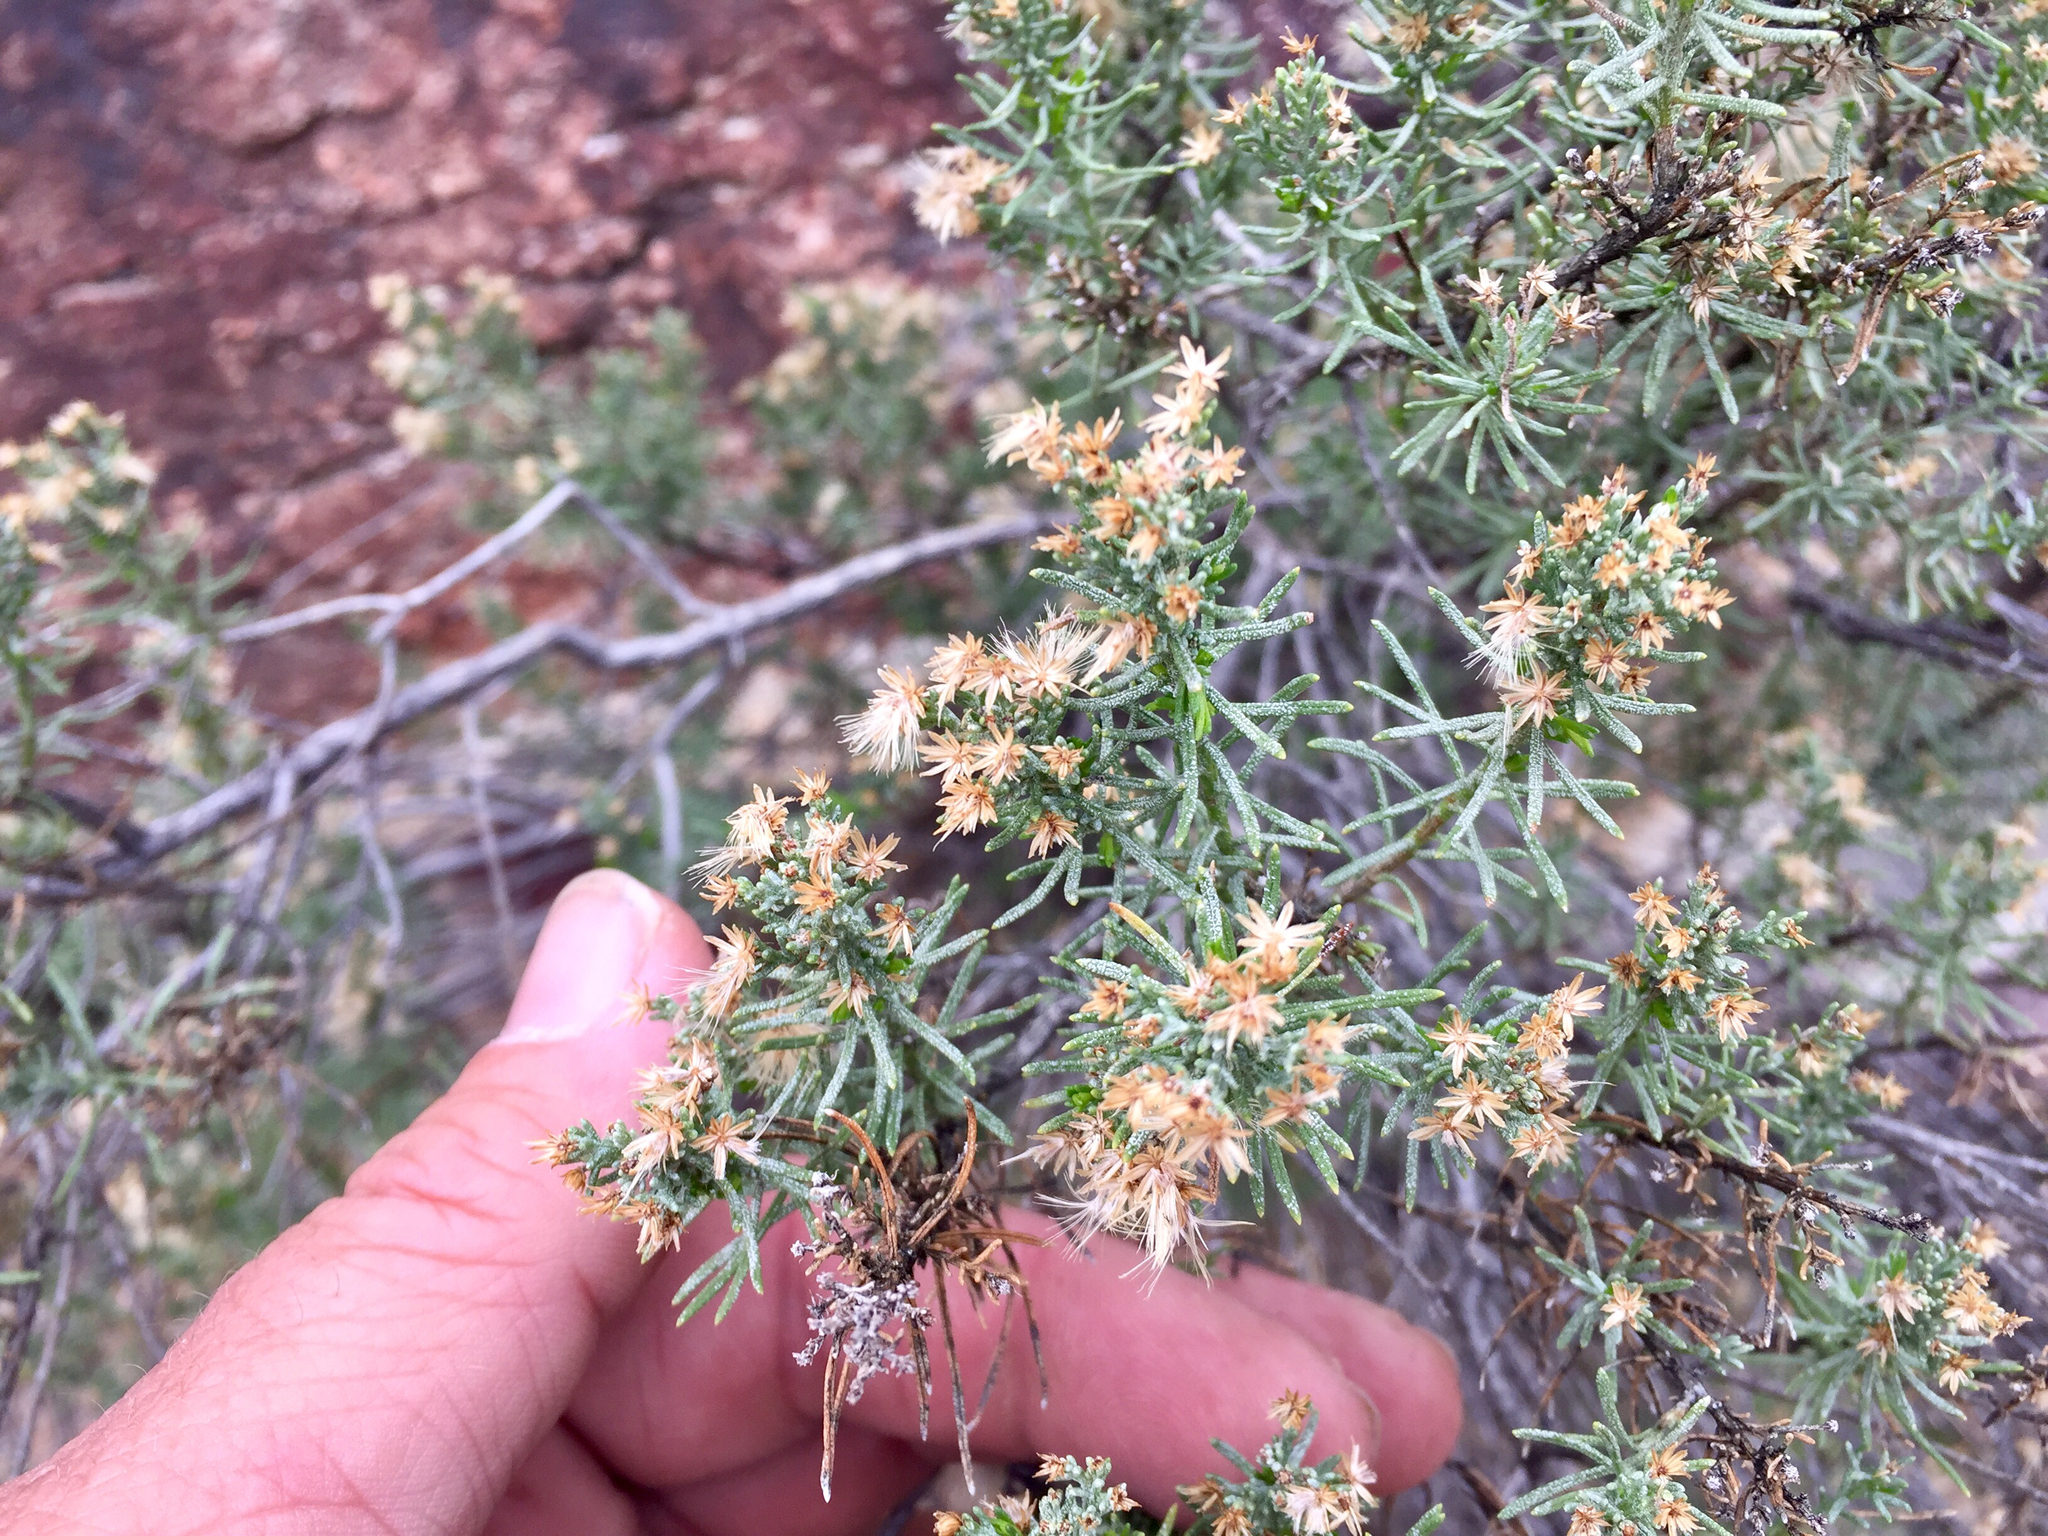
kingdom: Plantae
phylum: Tracheophyta
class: Magnoliopsida
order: Asterales
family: Asteraceae
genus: Ericameria
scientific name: Ericameria laricifolia
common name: Turpentine-bush
